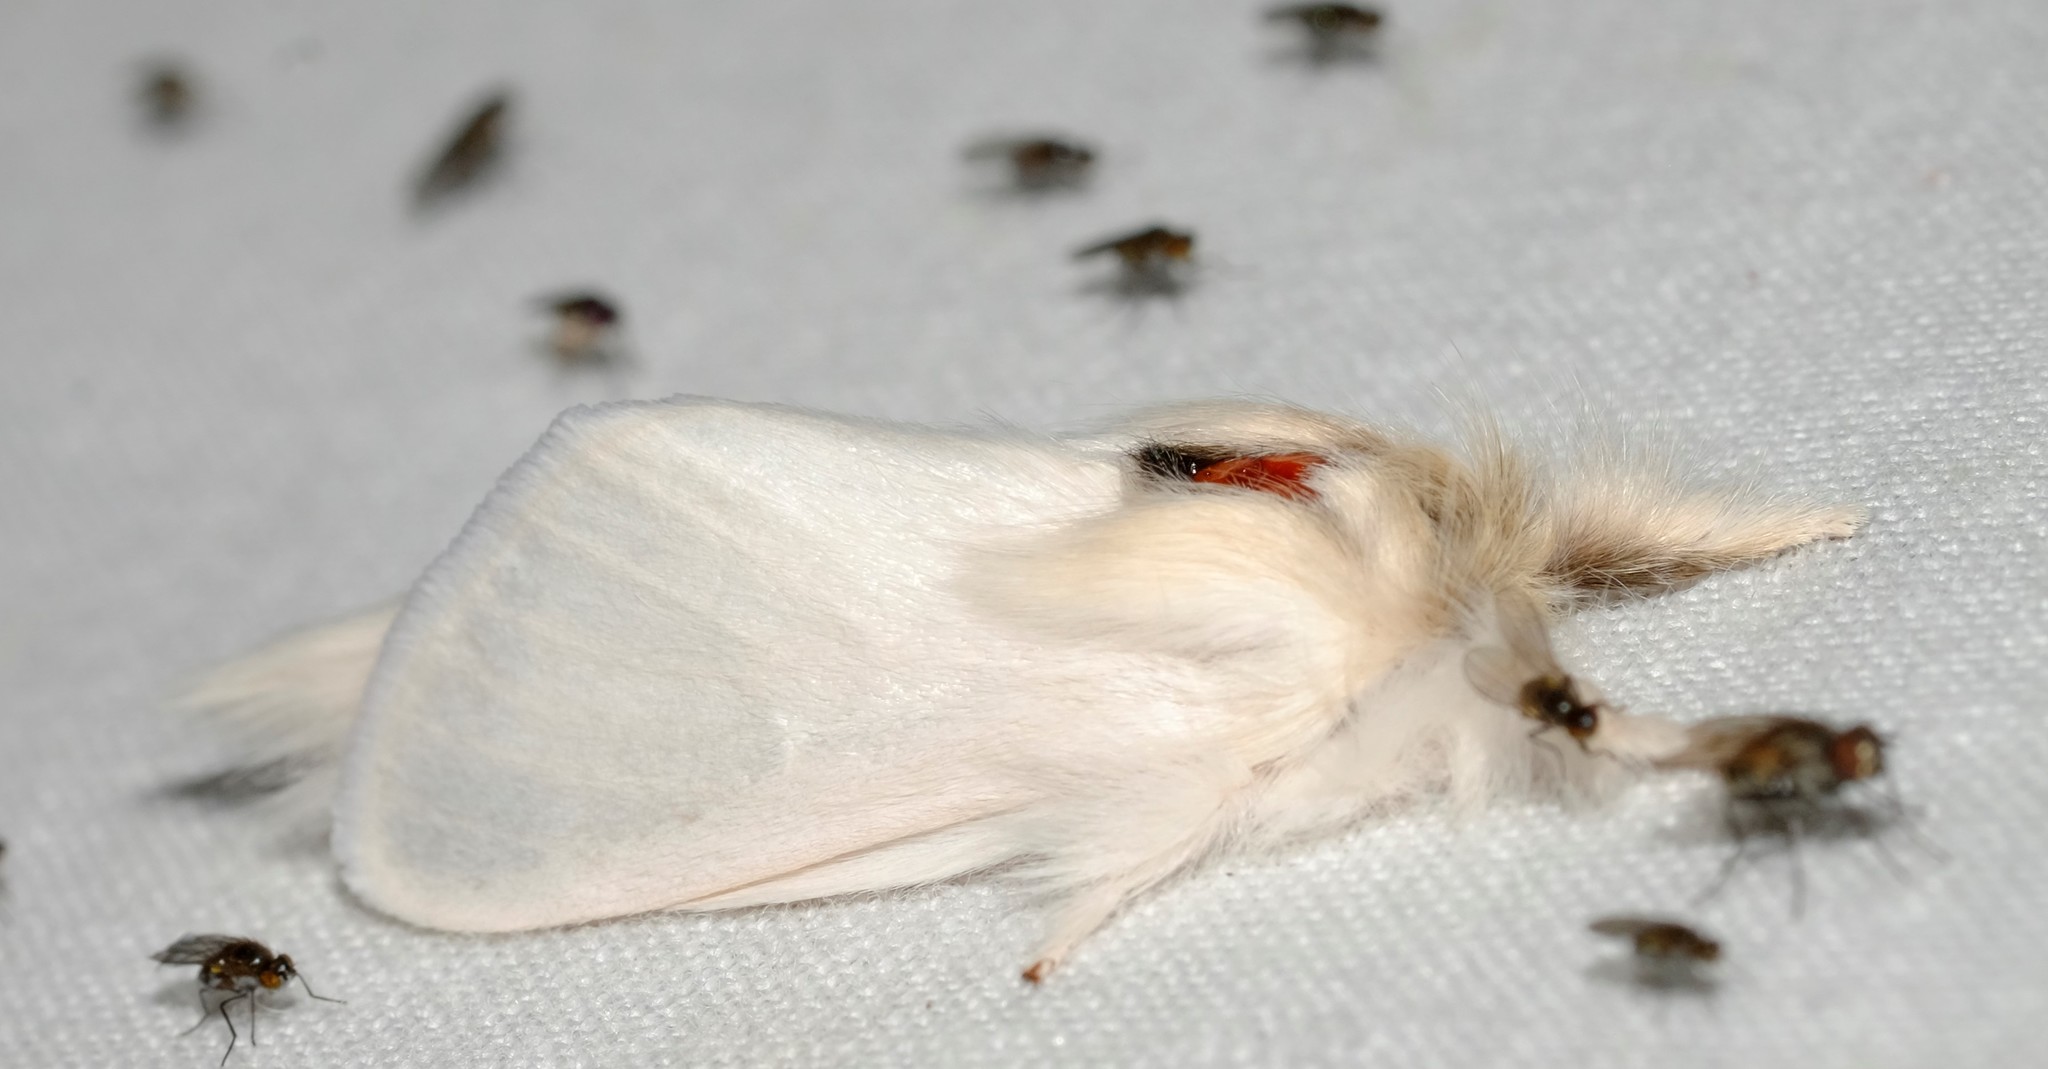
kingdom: Animalia
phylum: Arthropoda
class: Insecta
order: Lepidoptera
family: Notodontidae
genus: Trichiocercus
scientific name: Trichiocercus sparshalli
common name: Long-tailed satin
